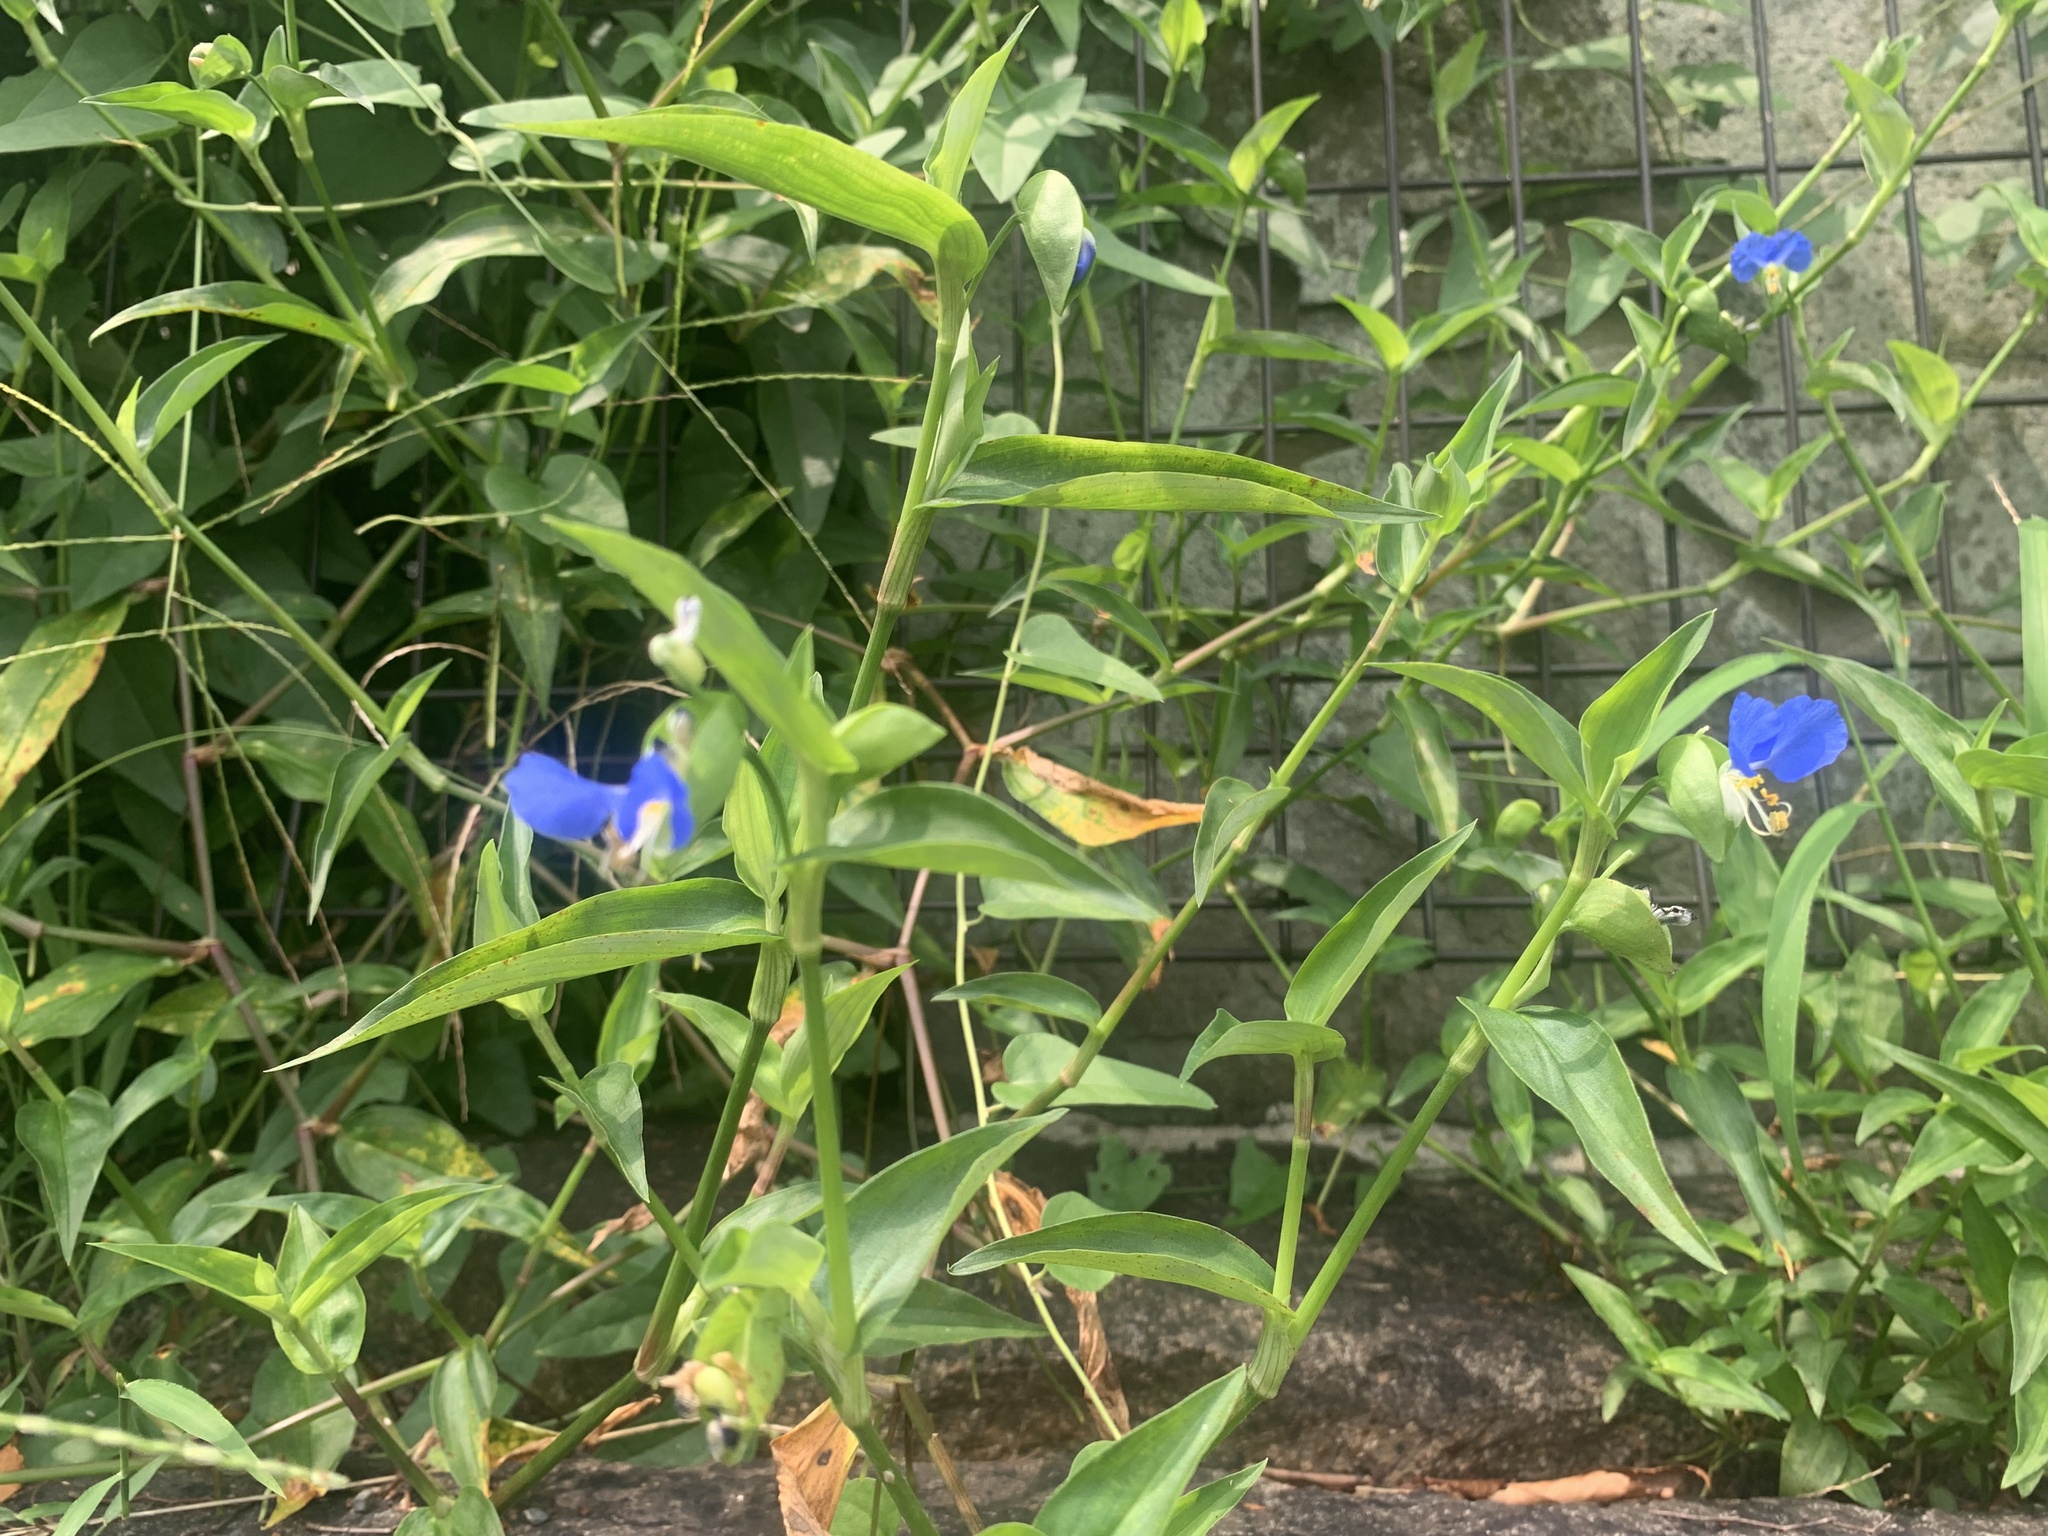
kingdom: Plantae
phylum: Tracheophyta
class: Liliopsida
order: Commelinales
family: Commelinaceae
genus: Commelina
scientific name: Commelina communis
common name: Asiatic dayflower
